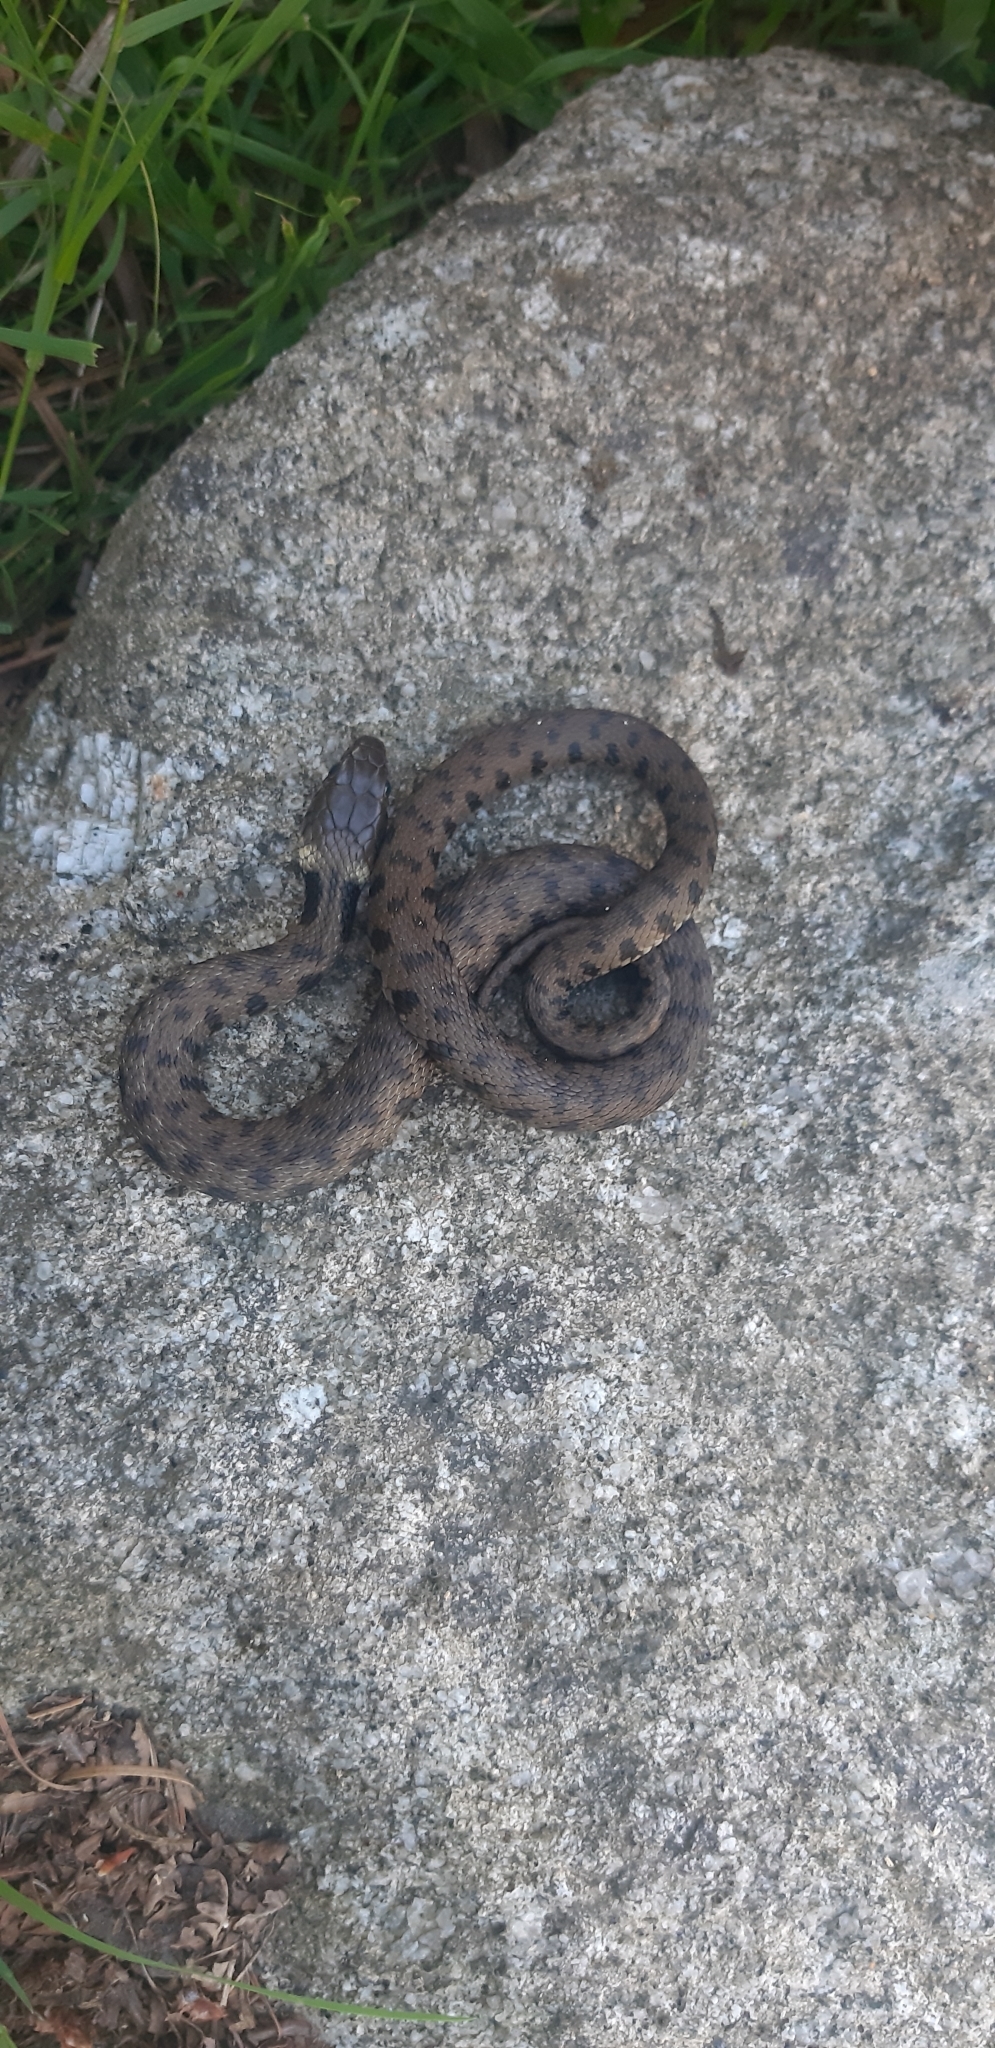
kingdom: Animalia
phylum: Chordata
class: Squamata
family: Colubridae
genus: Natrix
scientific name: Natrix helvetica
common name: Banded grass snake
